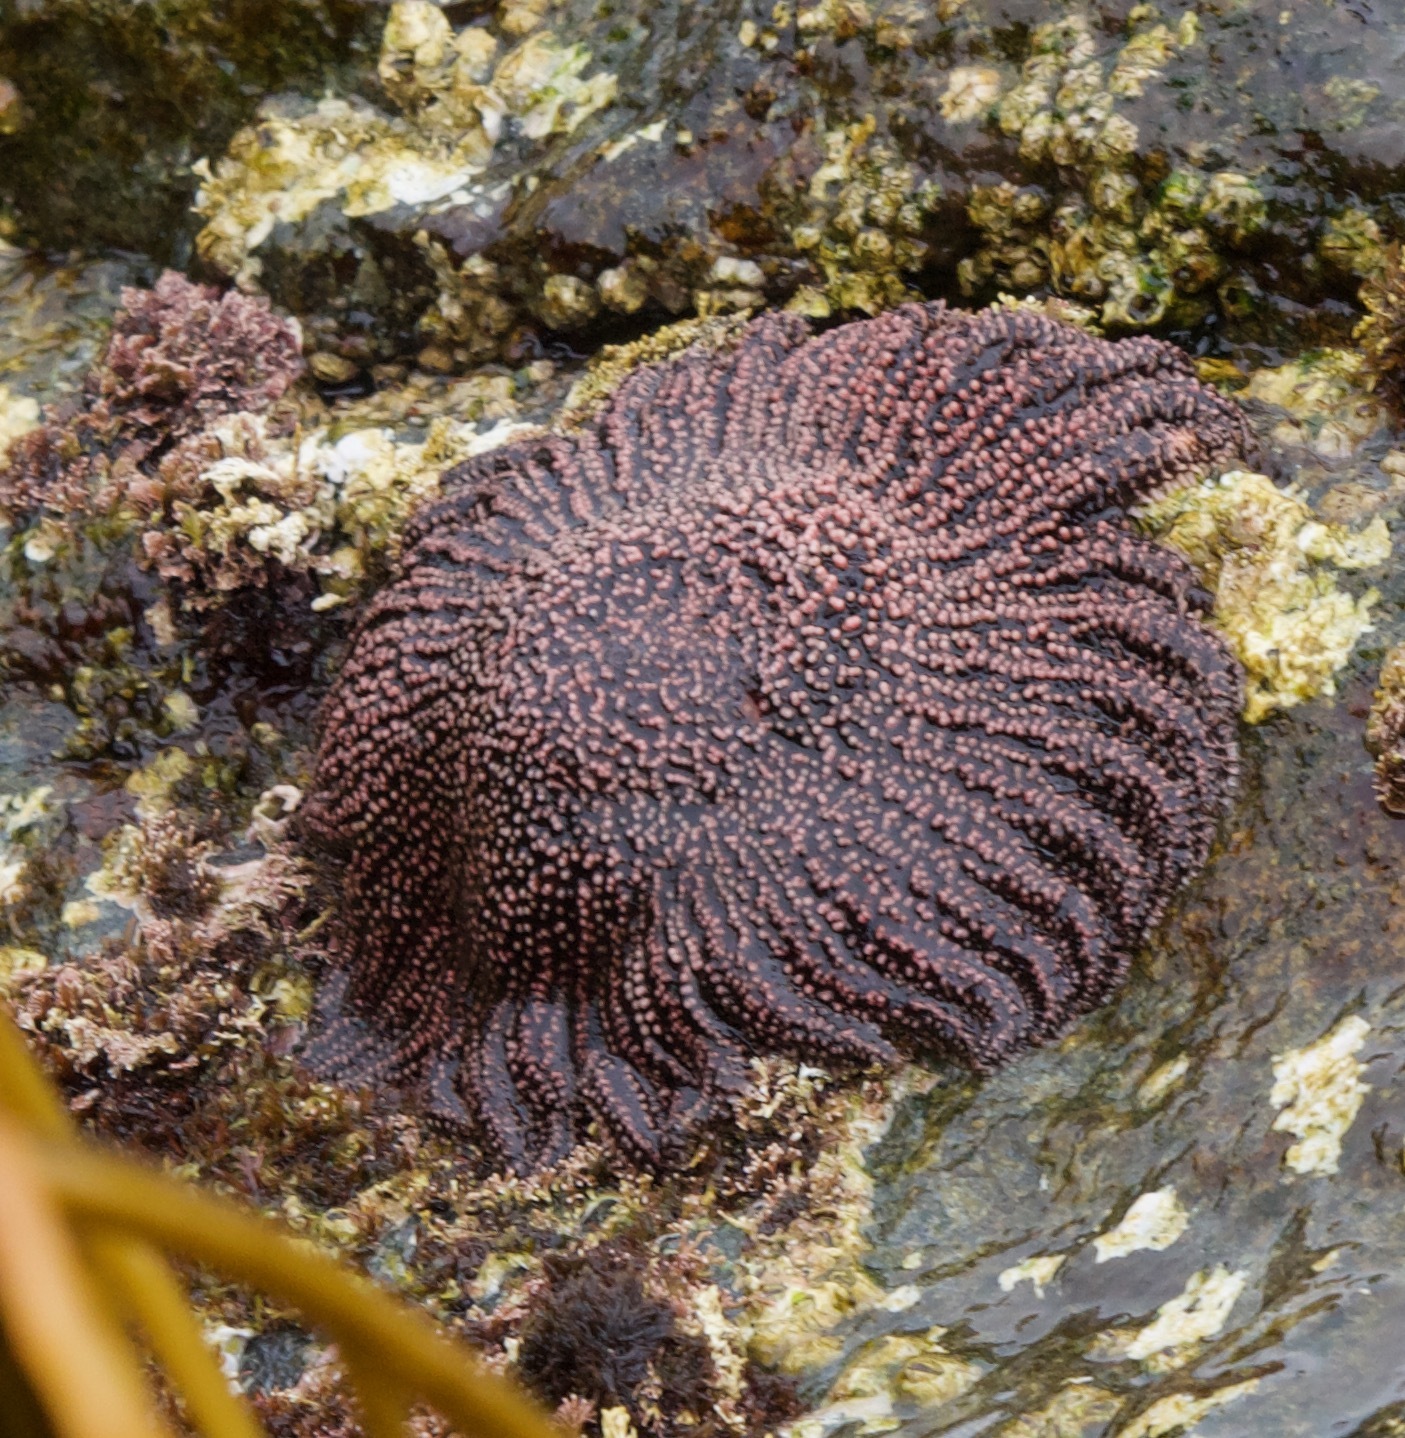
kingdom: Animalia
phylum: Echinodermata
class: Asteroidea
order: Forcipulatida
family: Heliasteridae
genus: Heliaster
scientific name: Heliaster helianthus
